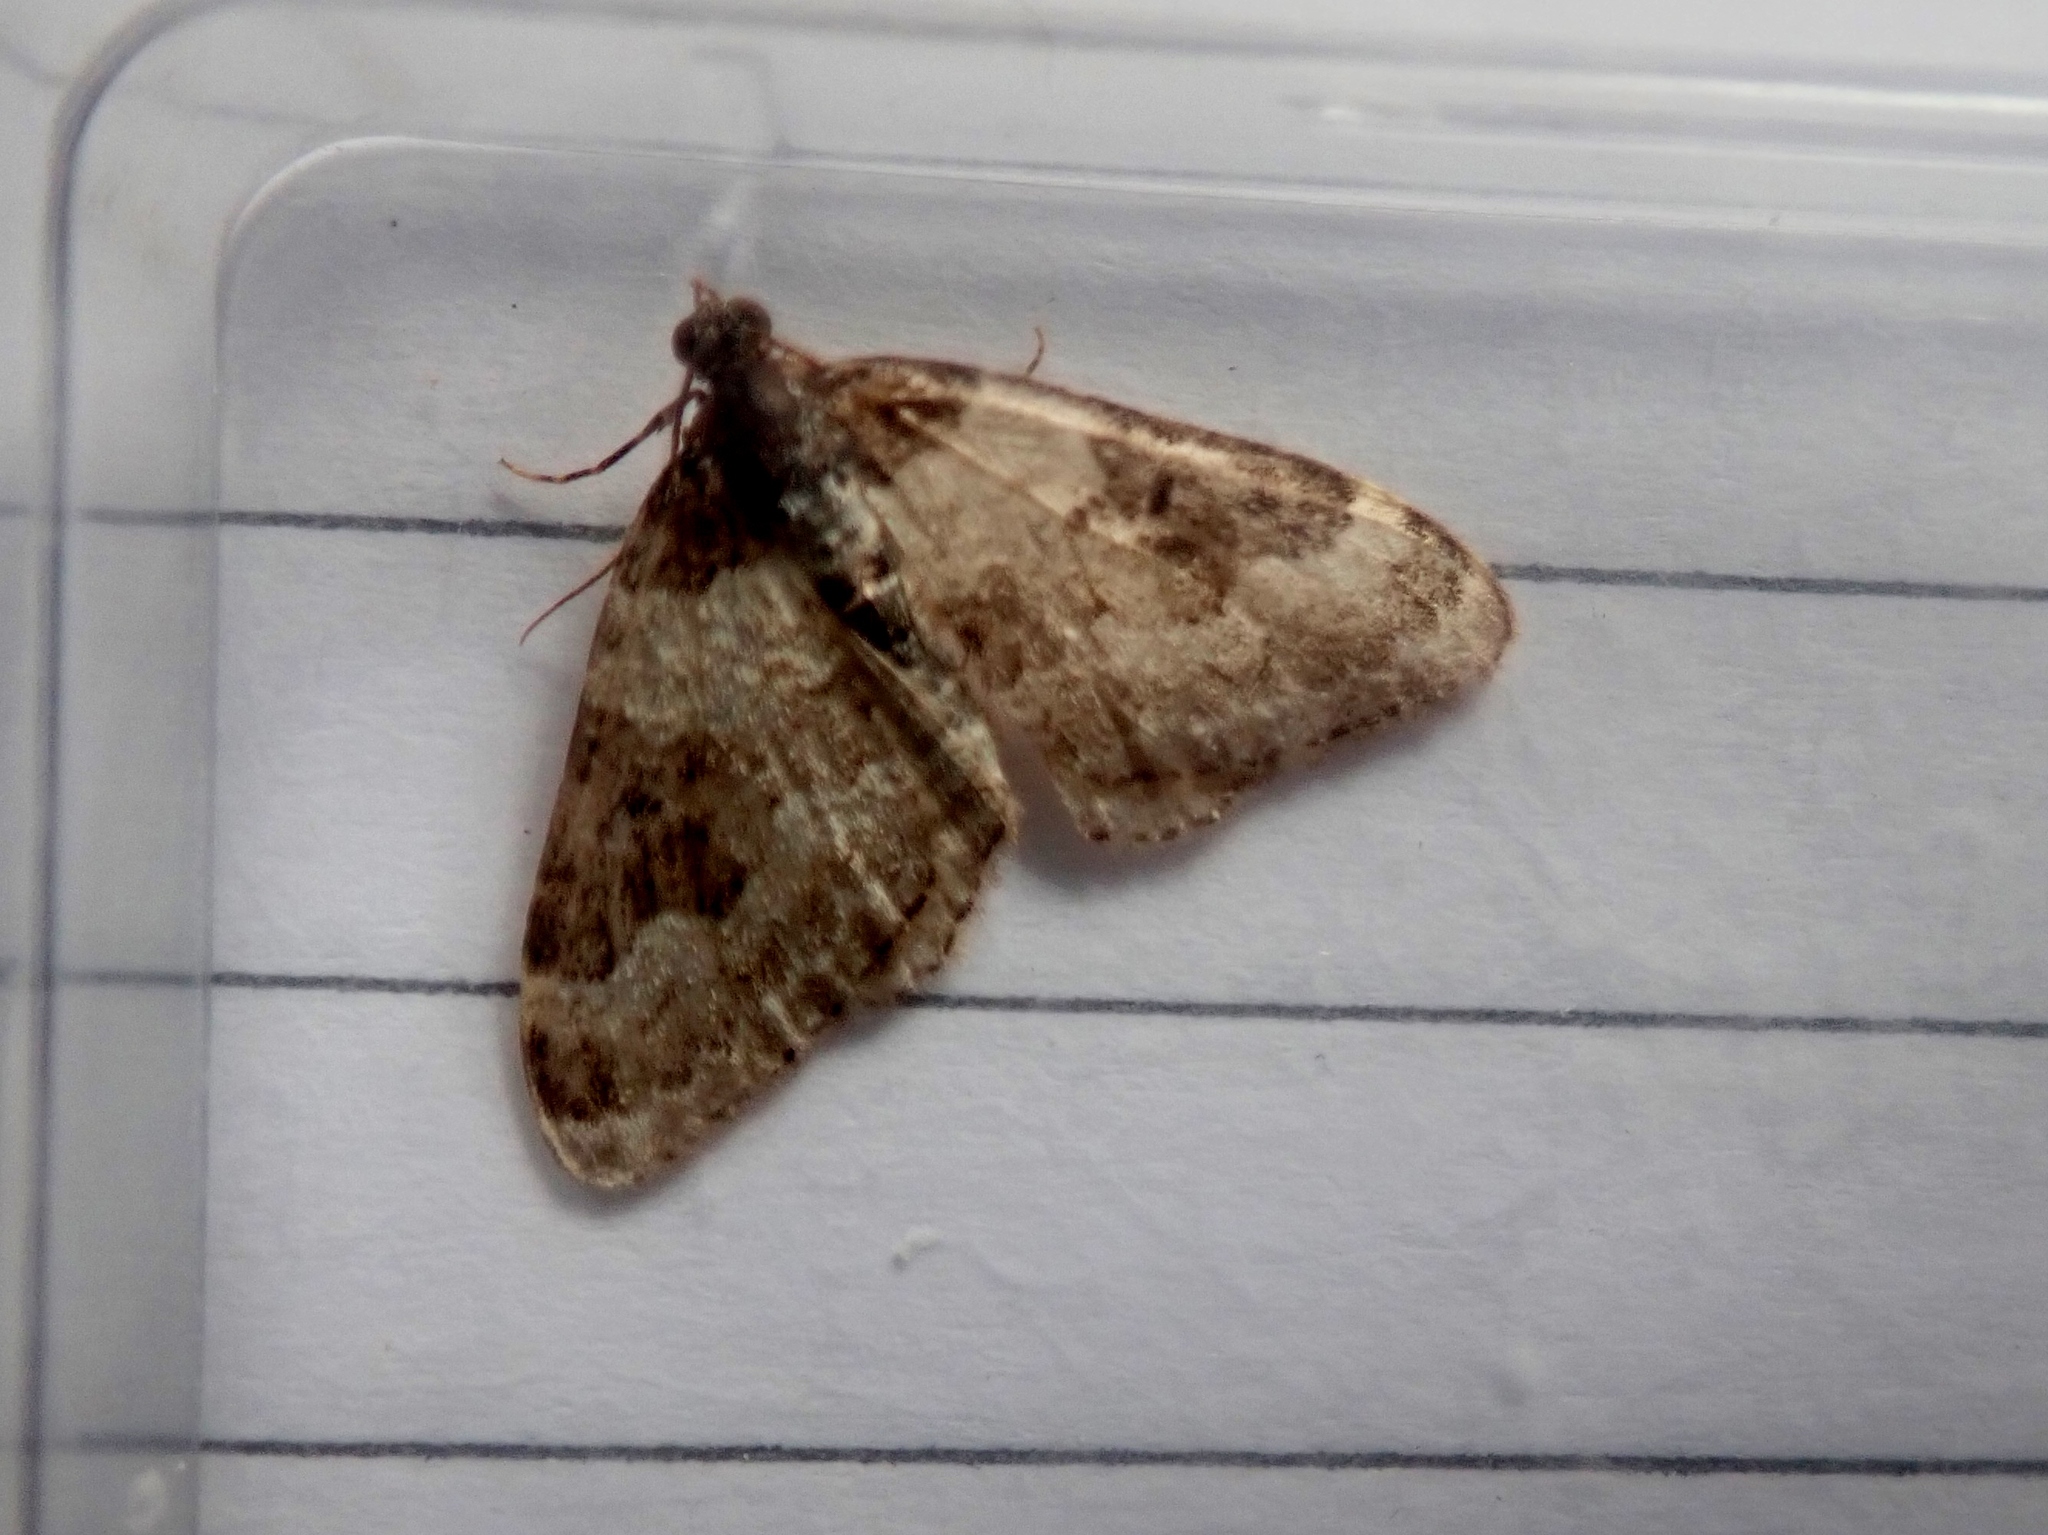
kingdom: Animalia
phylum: Arthropoda
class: Insecta
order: Lepidoptera
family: Geometridae
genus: Xanthorhoe
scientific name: Xanthorhoe fluctuata
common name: Garden carpet
